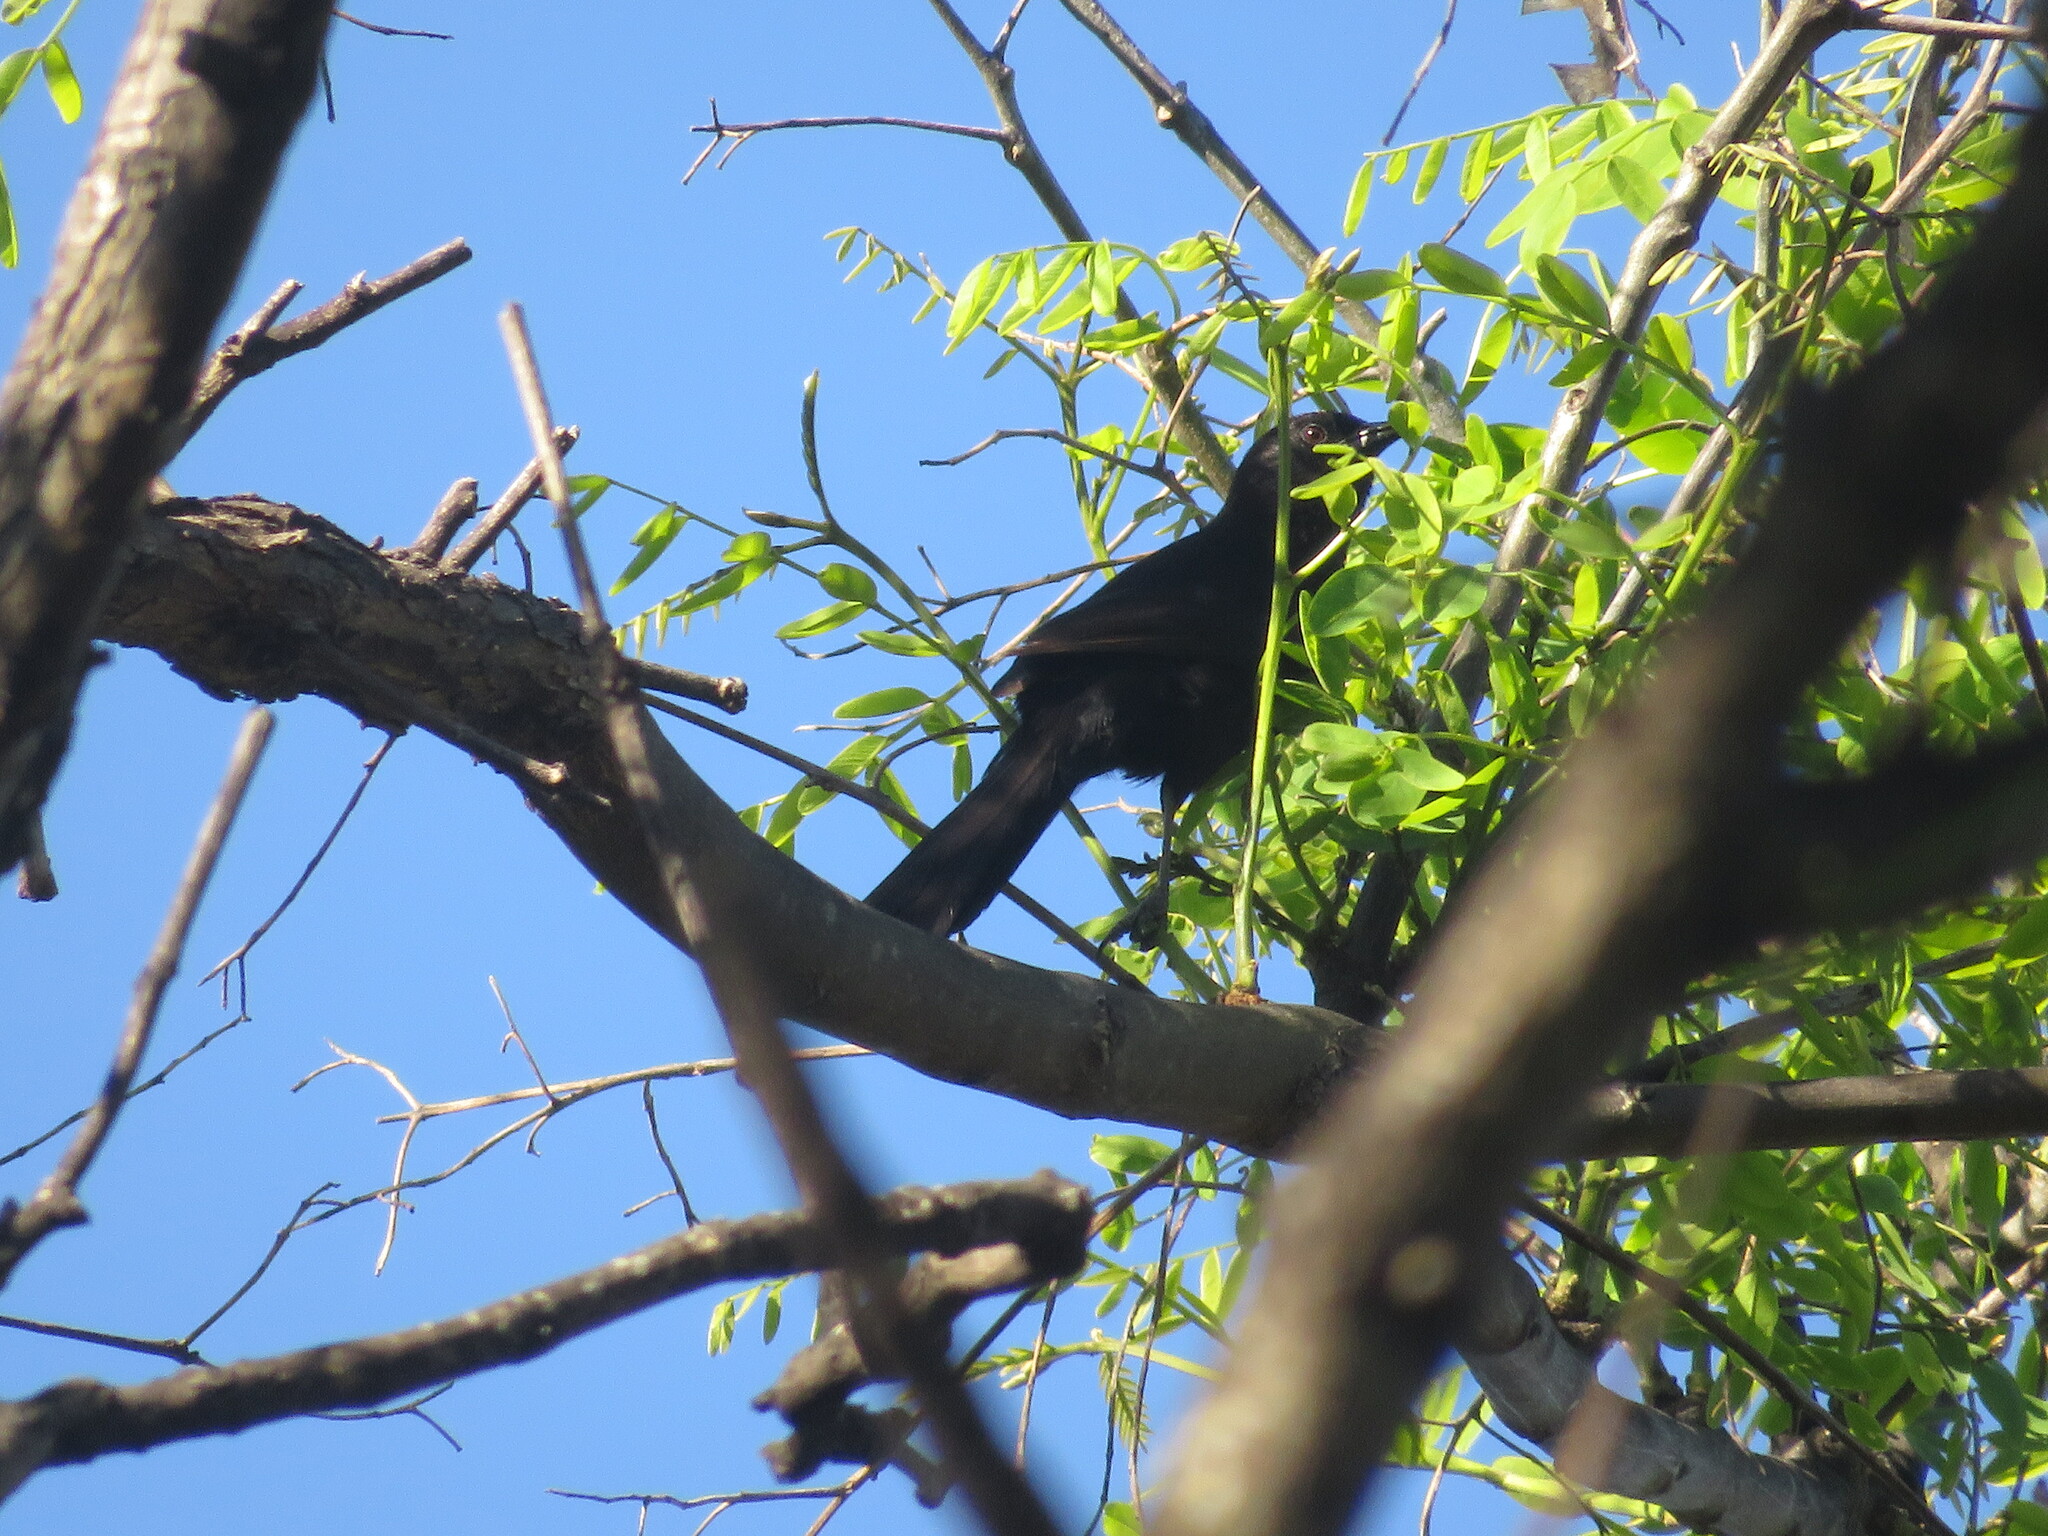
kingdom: Animalia
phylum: Chordata
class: Aves
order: Passeriformes
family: Icteridae
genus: Icterus
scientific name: Icterus cayanensis
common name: Epaulet oriole
